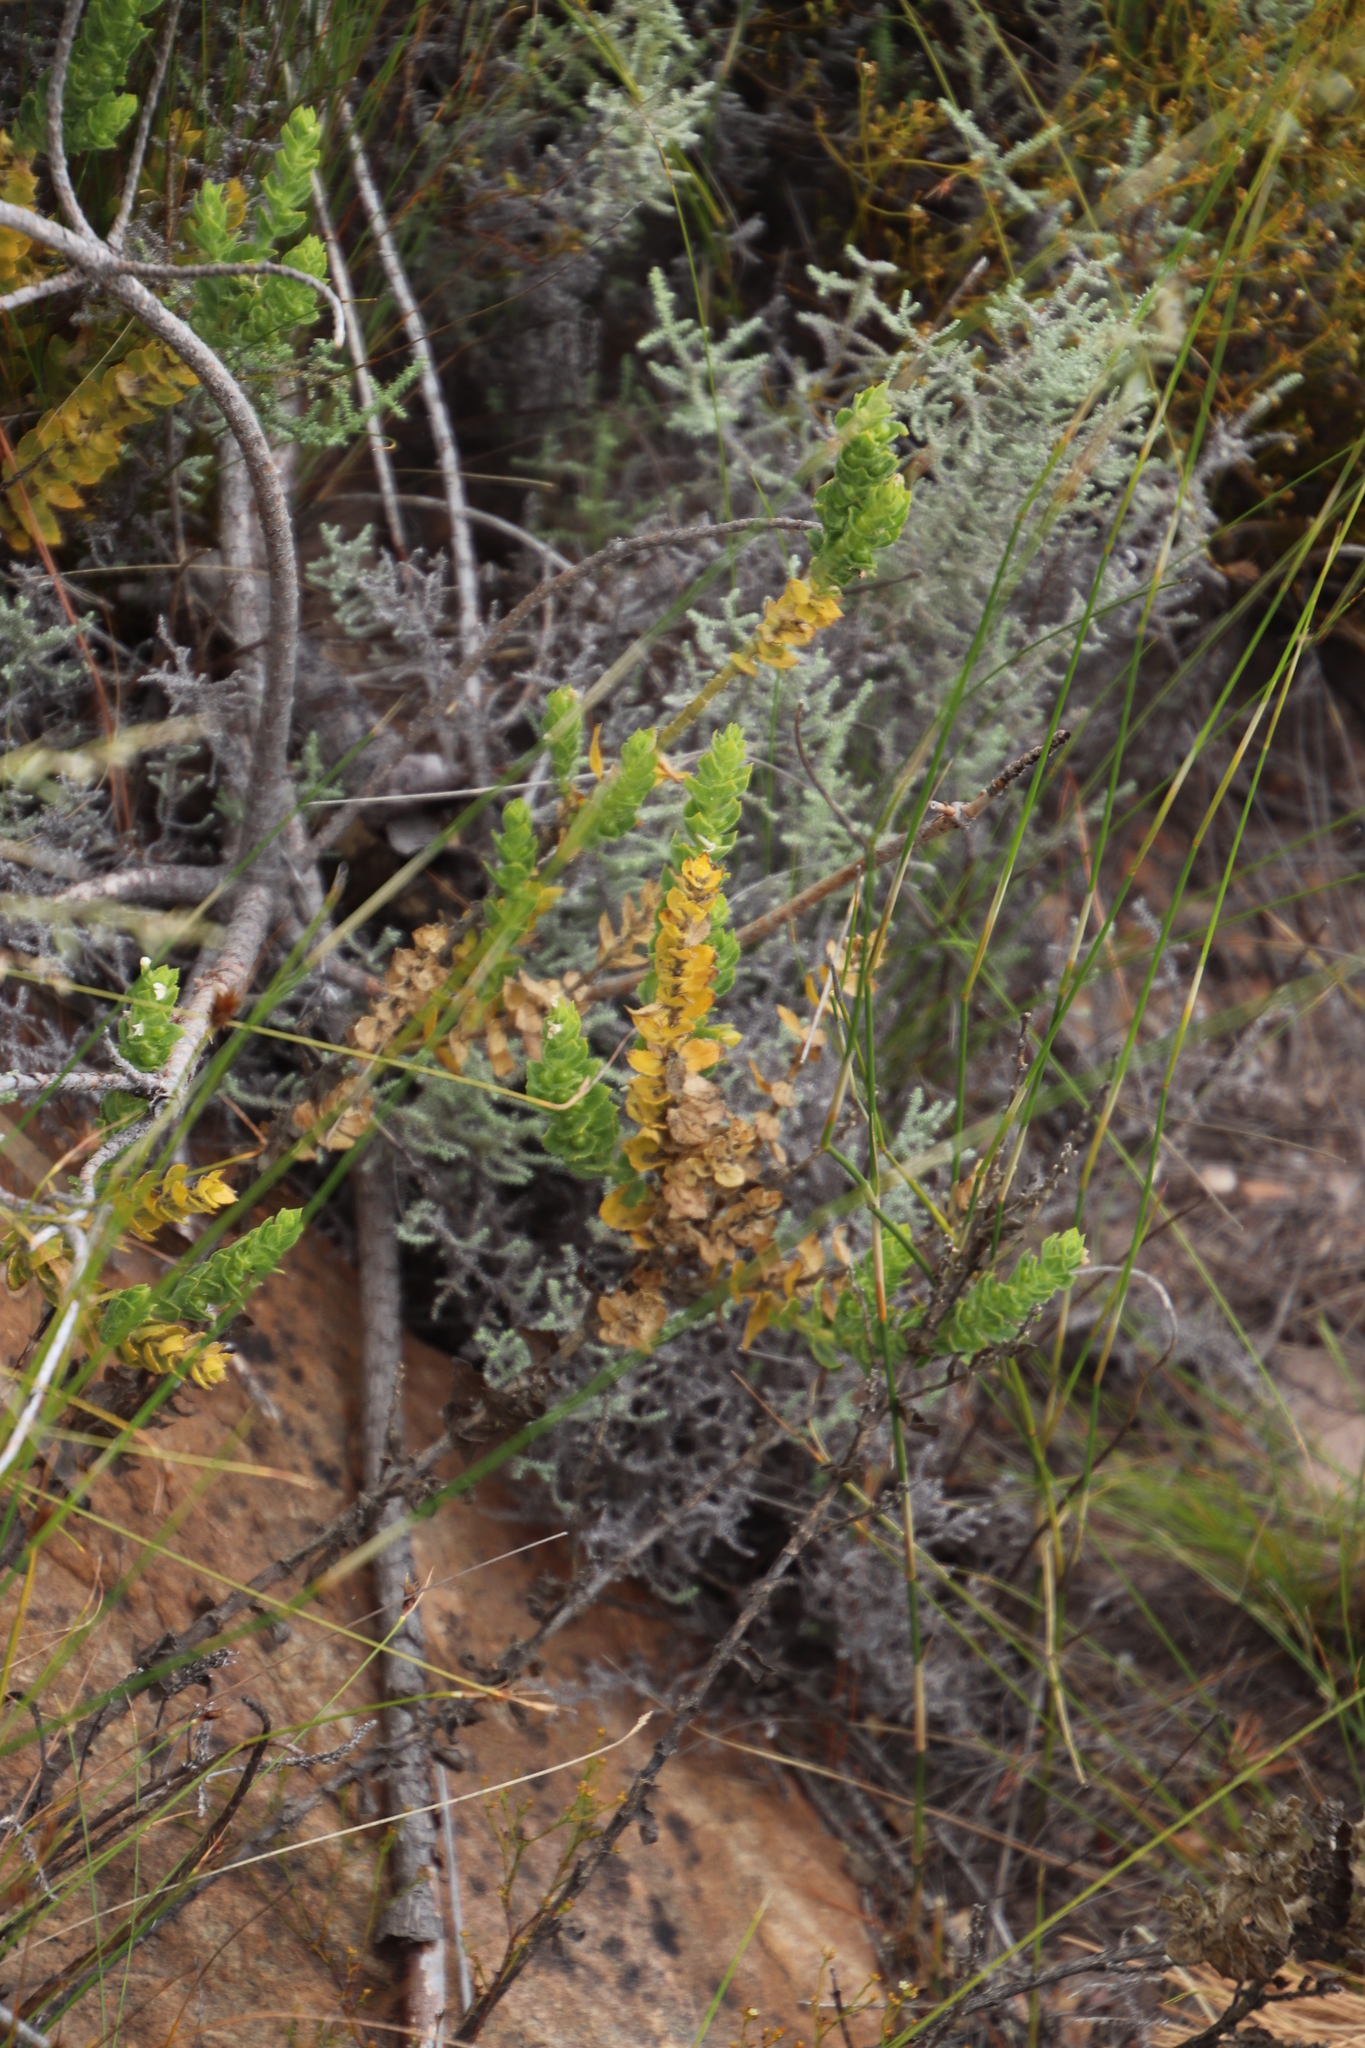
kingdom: Plantae
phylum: Tracheophyta
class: Magnoliopsida
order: Lamiales
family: Scrophulariaceae
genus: Oftia
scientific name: Oftia africana
